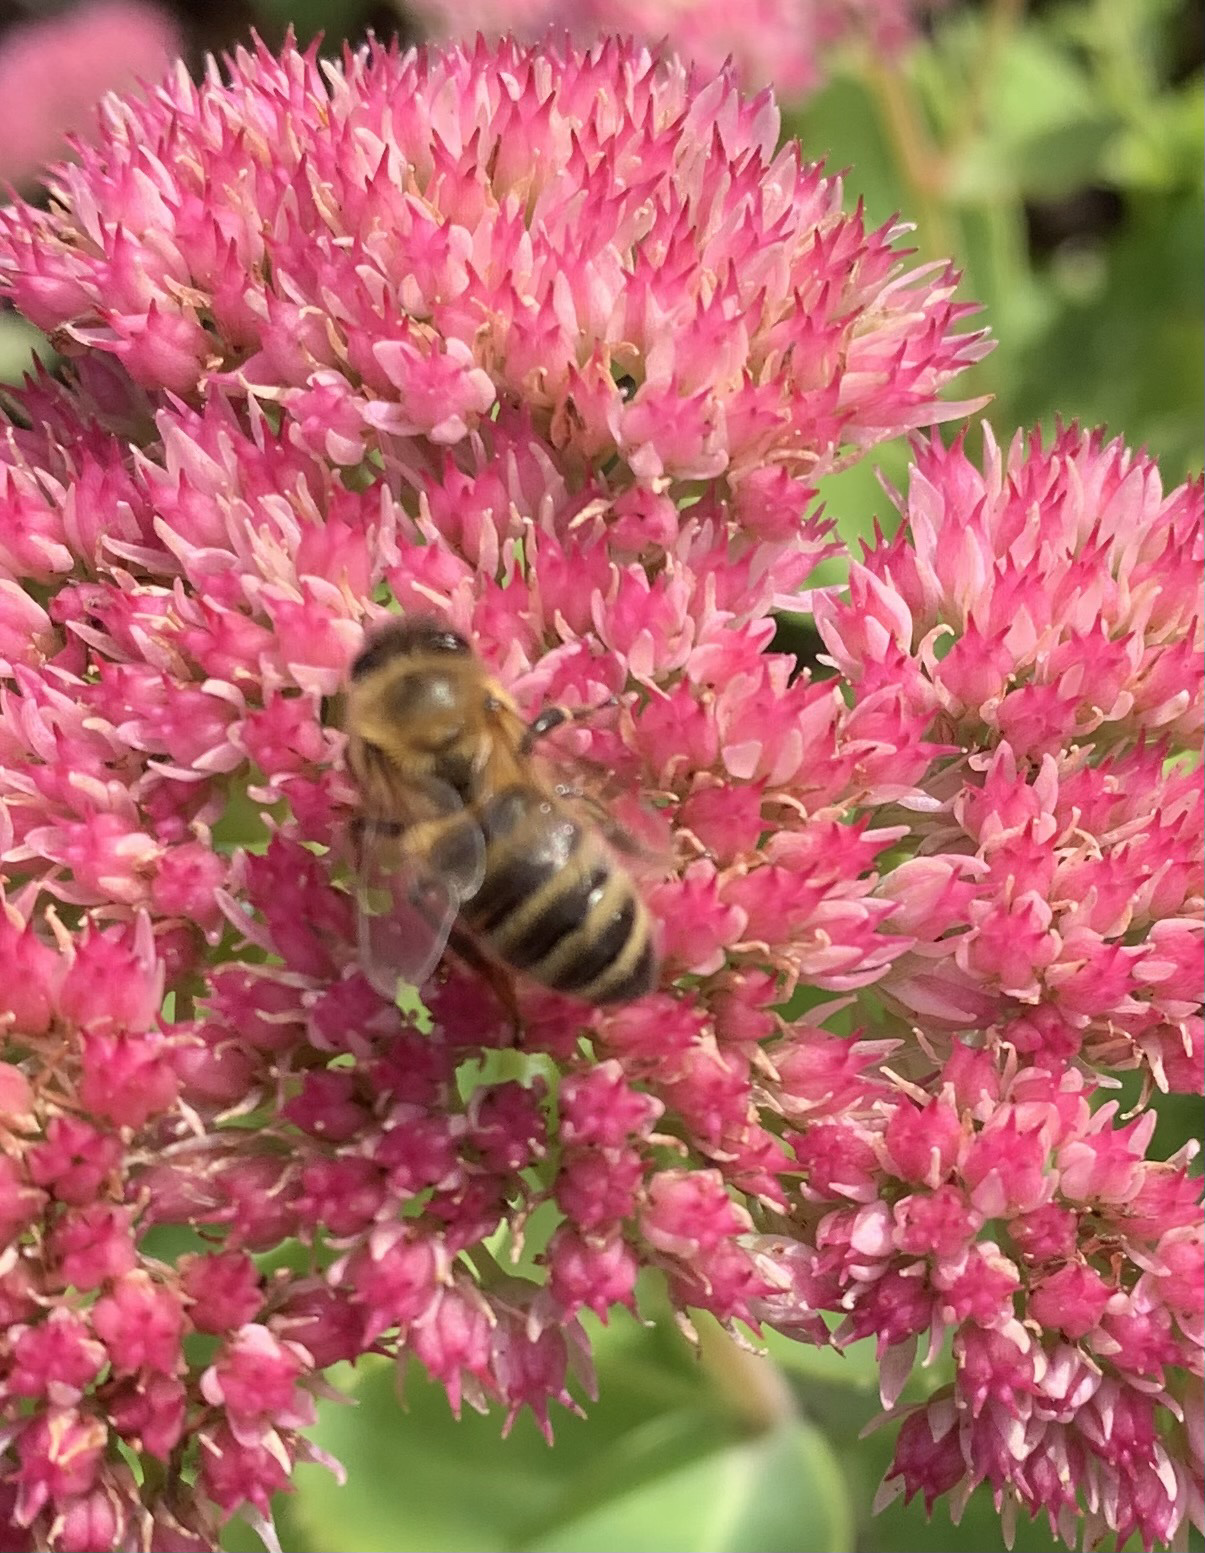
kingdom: Animalia
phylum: Arthropoda
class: Insecta
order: Hymenoptera
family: Apidae
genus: Apis
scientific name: Apis mellifera
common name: Honey bee
